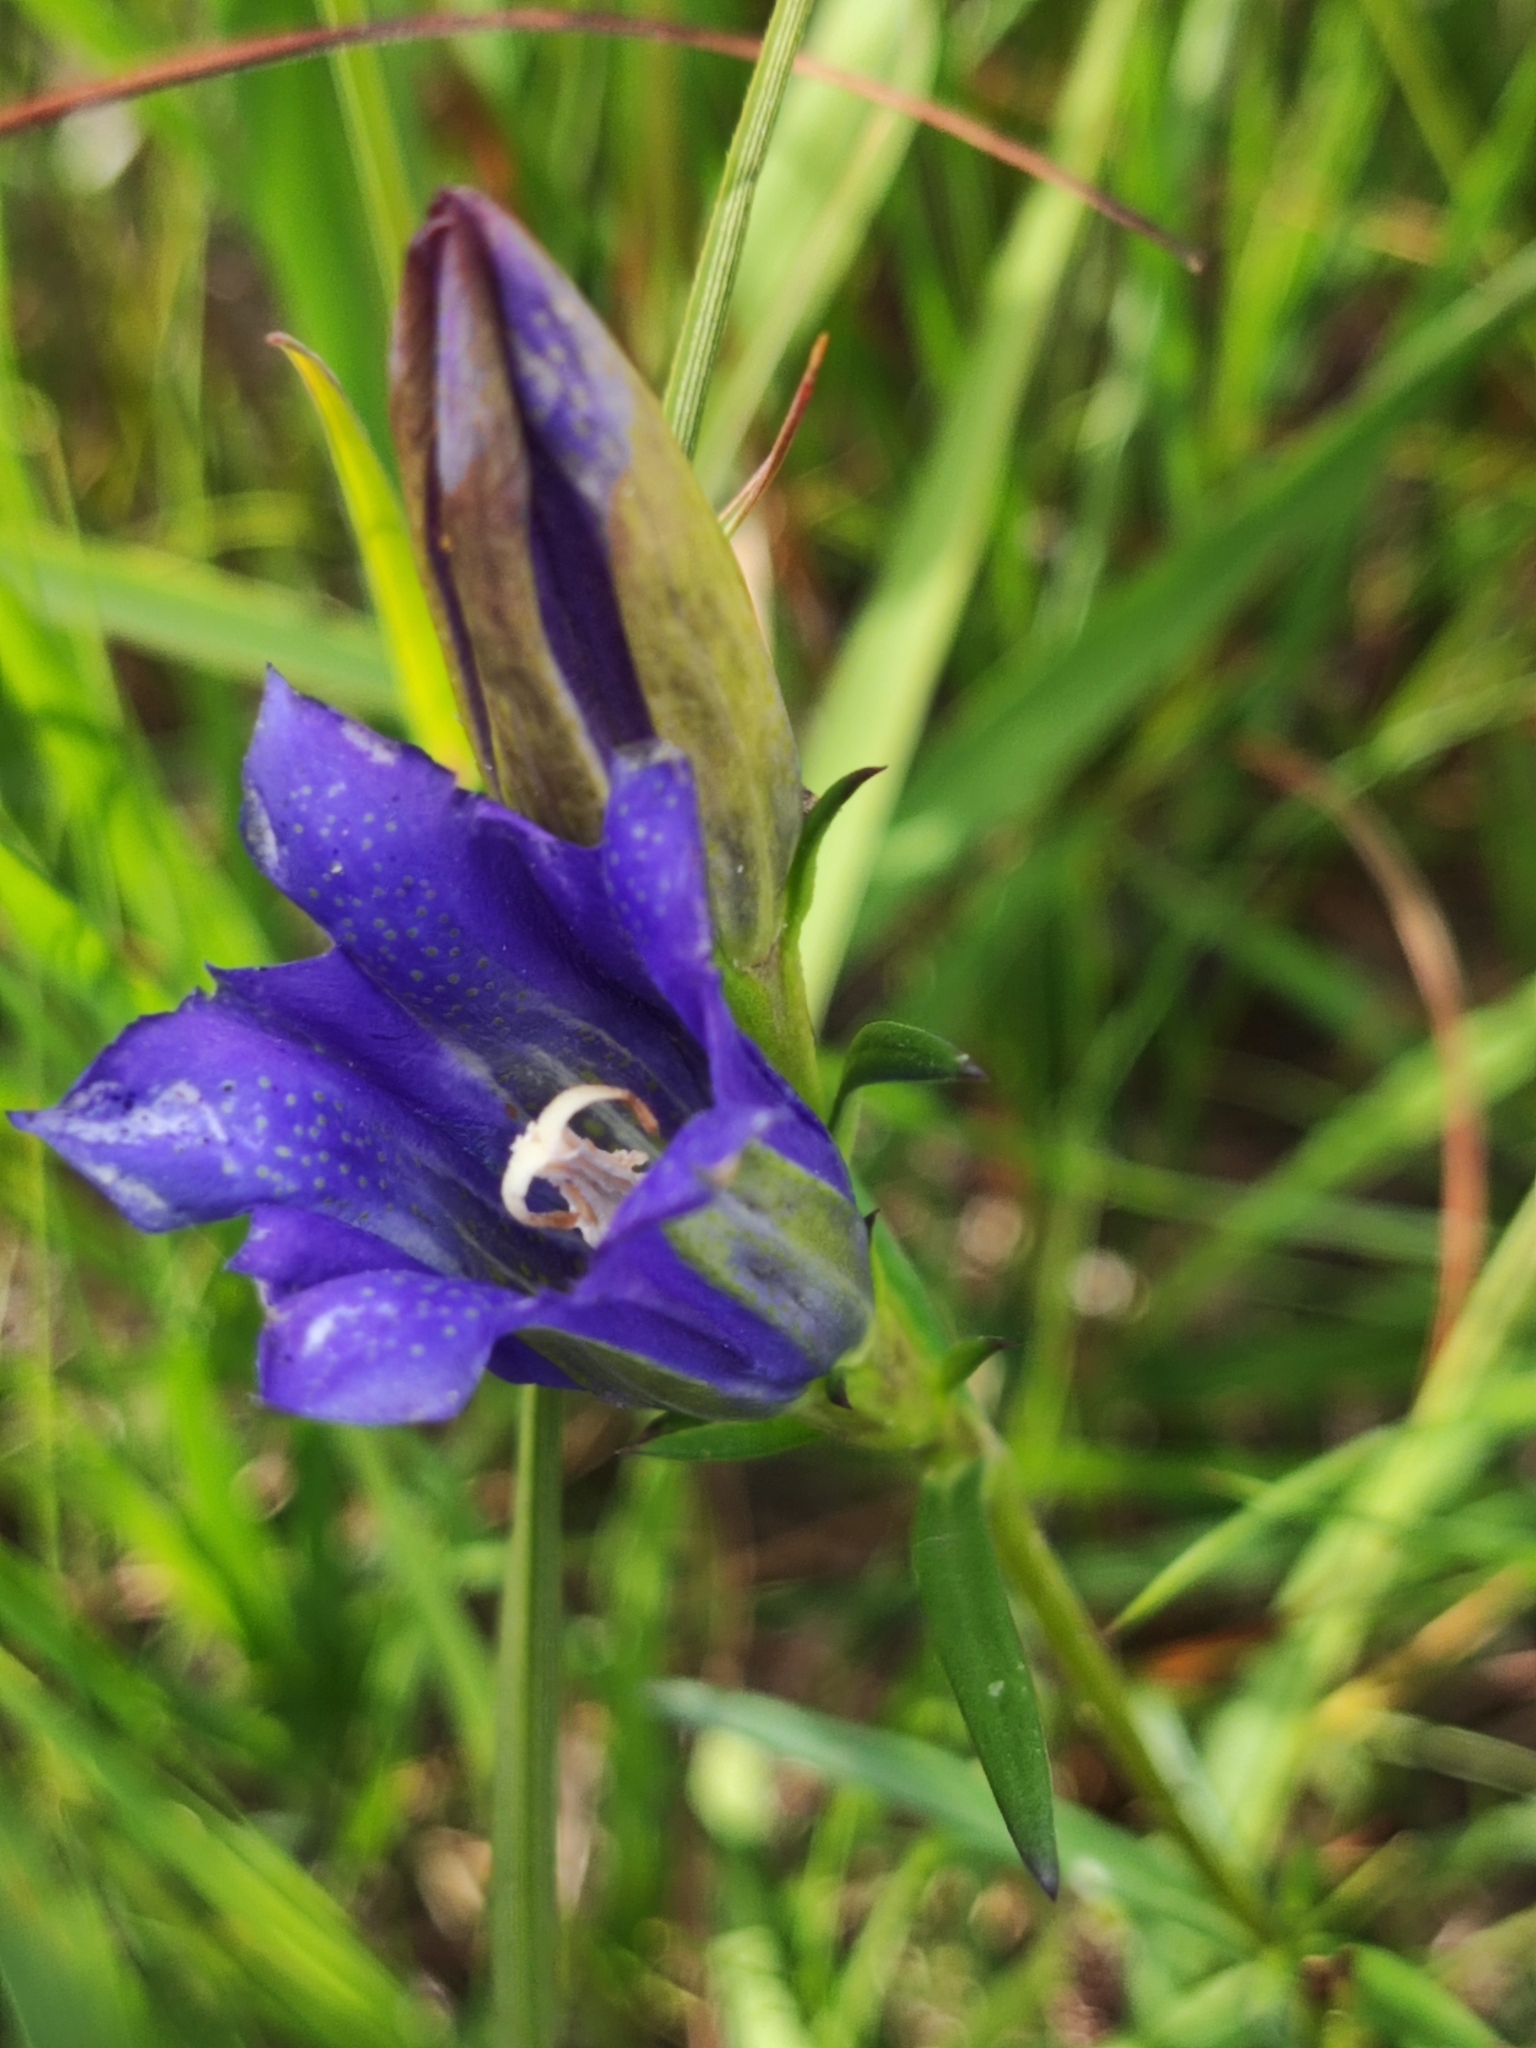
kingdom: Plantae
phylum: Tracheophyta
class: Magnoliopsida
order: Gentianales
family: Gentianaceae
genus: Gentiana
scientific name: Gentiana pneumonanthe
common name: Marsh gentian
